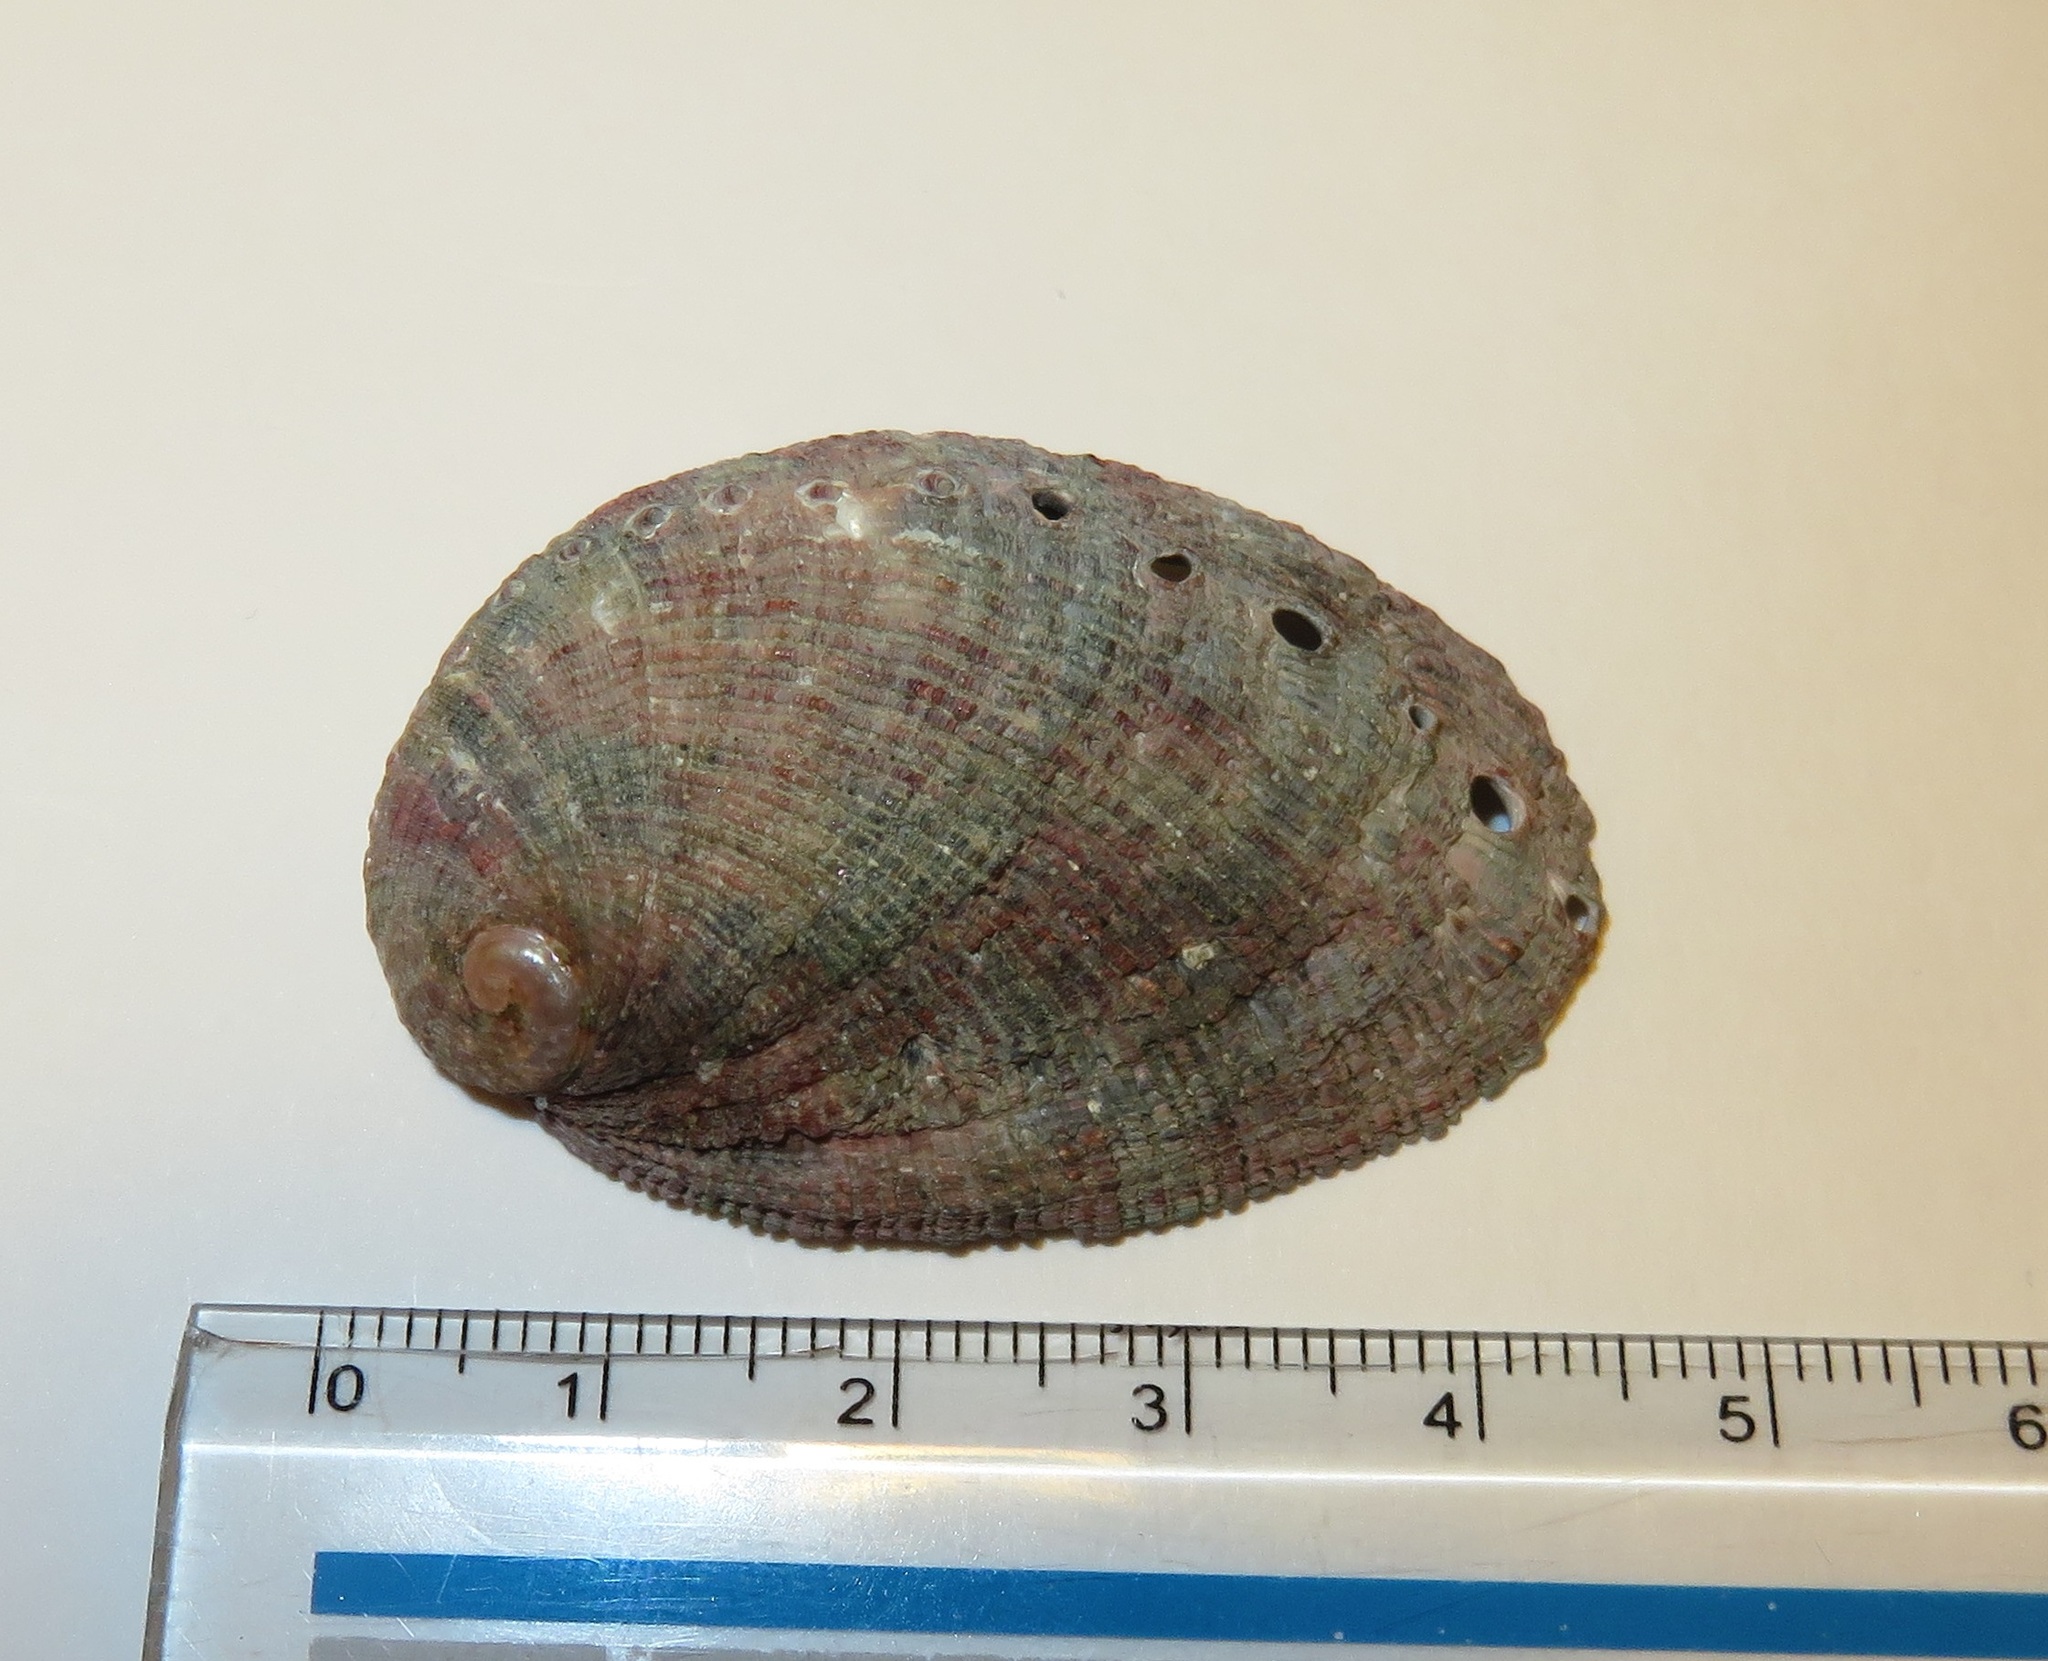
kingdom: Animalia
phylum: Mollusca
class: Gastropoda
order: Lepetellida
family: Haliotidae
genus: Haliotis
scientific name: Haliotis diversicolor
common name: Multicolored abalone
